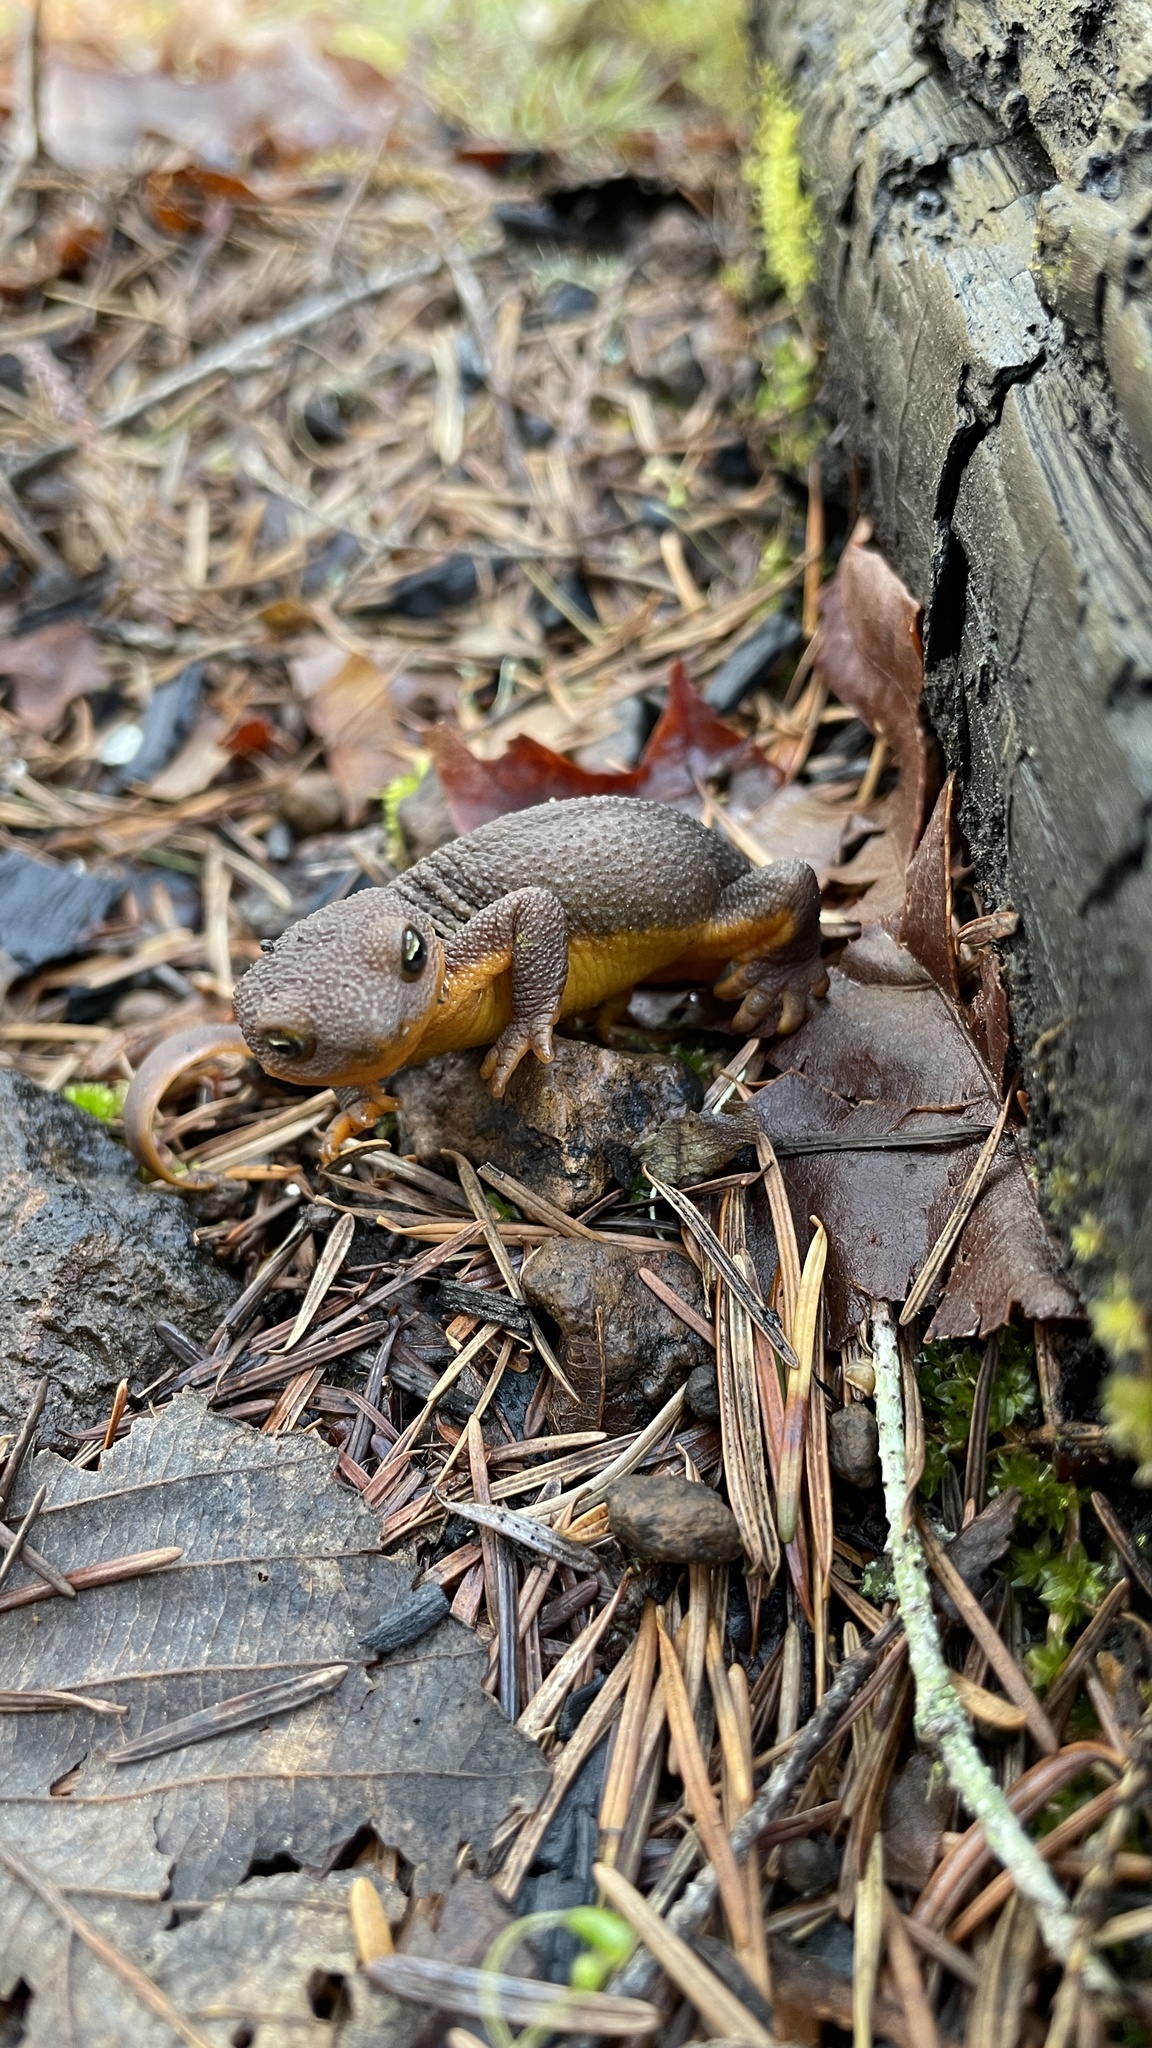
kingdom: Animalia
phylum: Chordata
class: Amphibia
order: Caudata
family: Salamandridae
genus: Taricha
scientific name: Taricha granulosa
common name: Roughskin newt
